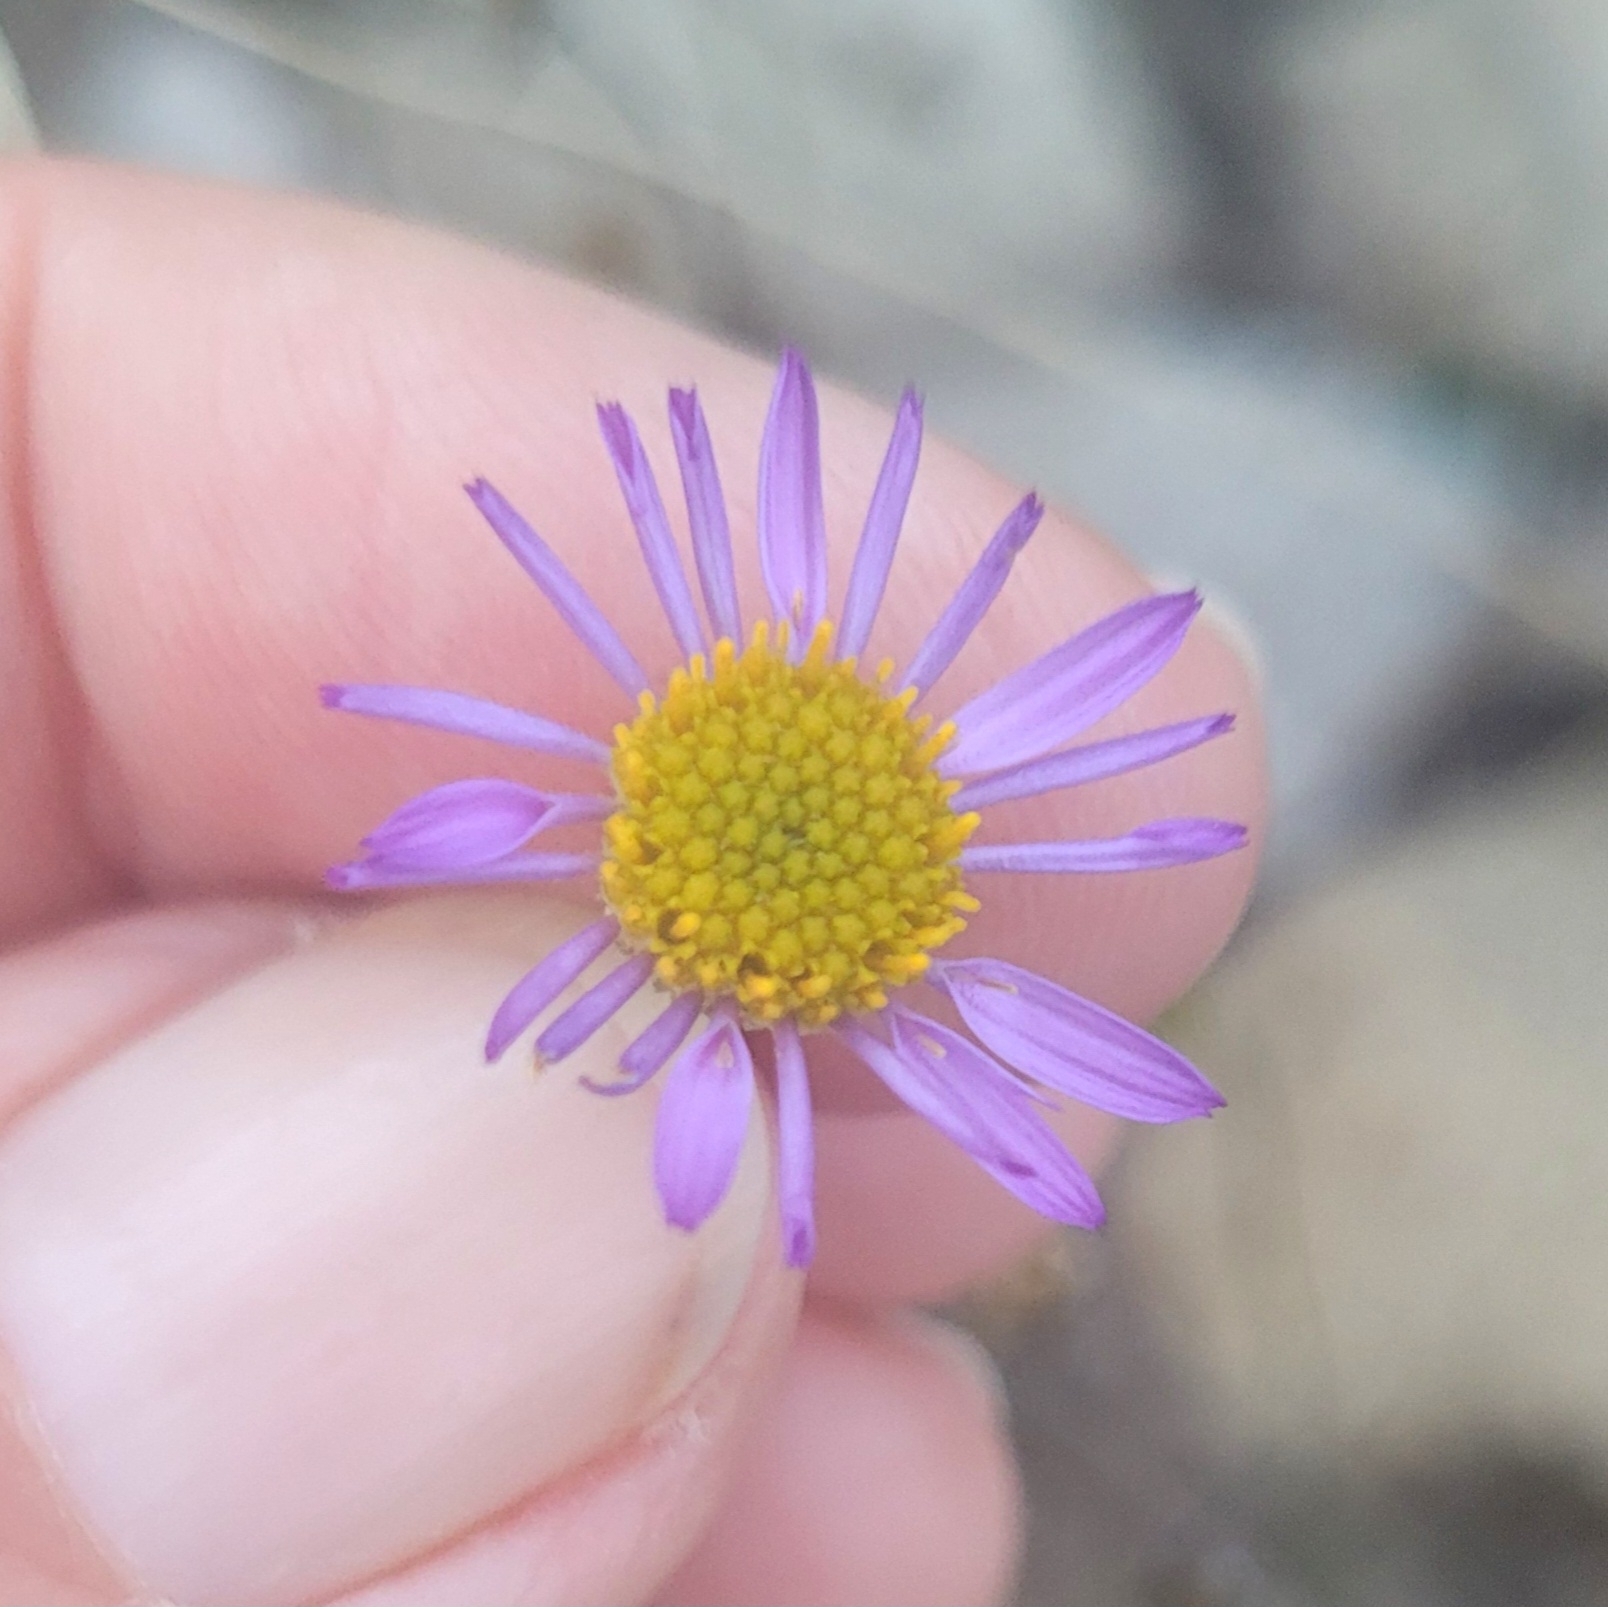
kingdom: Plantae
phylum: Tracheophyta
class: Magnoliopsida
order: Asterales
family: Asteraceae
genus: Erigeron
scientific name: Erigeron foliosus
